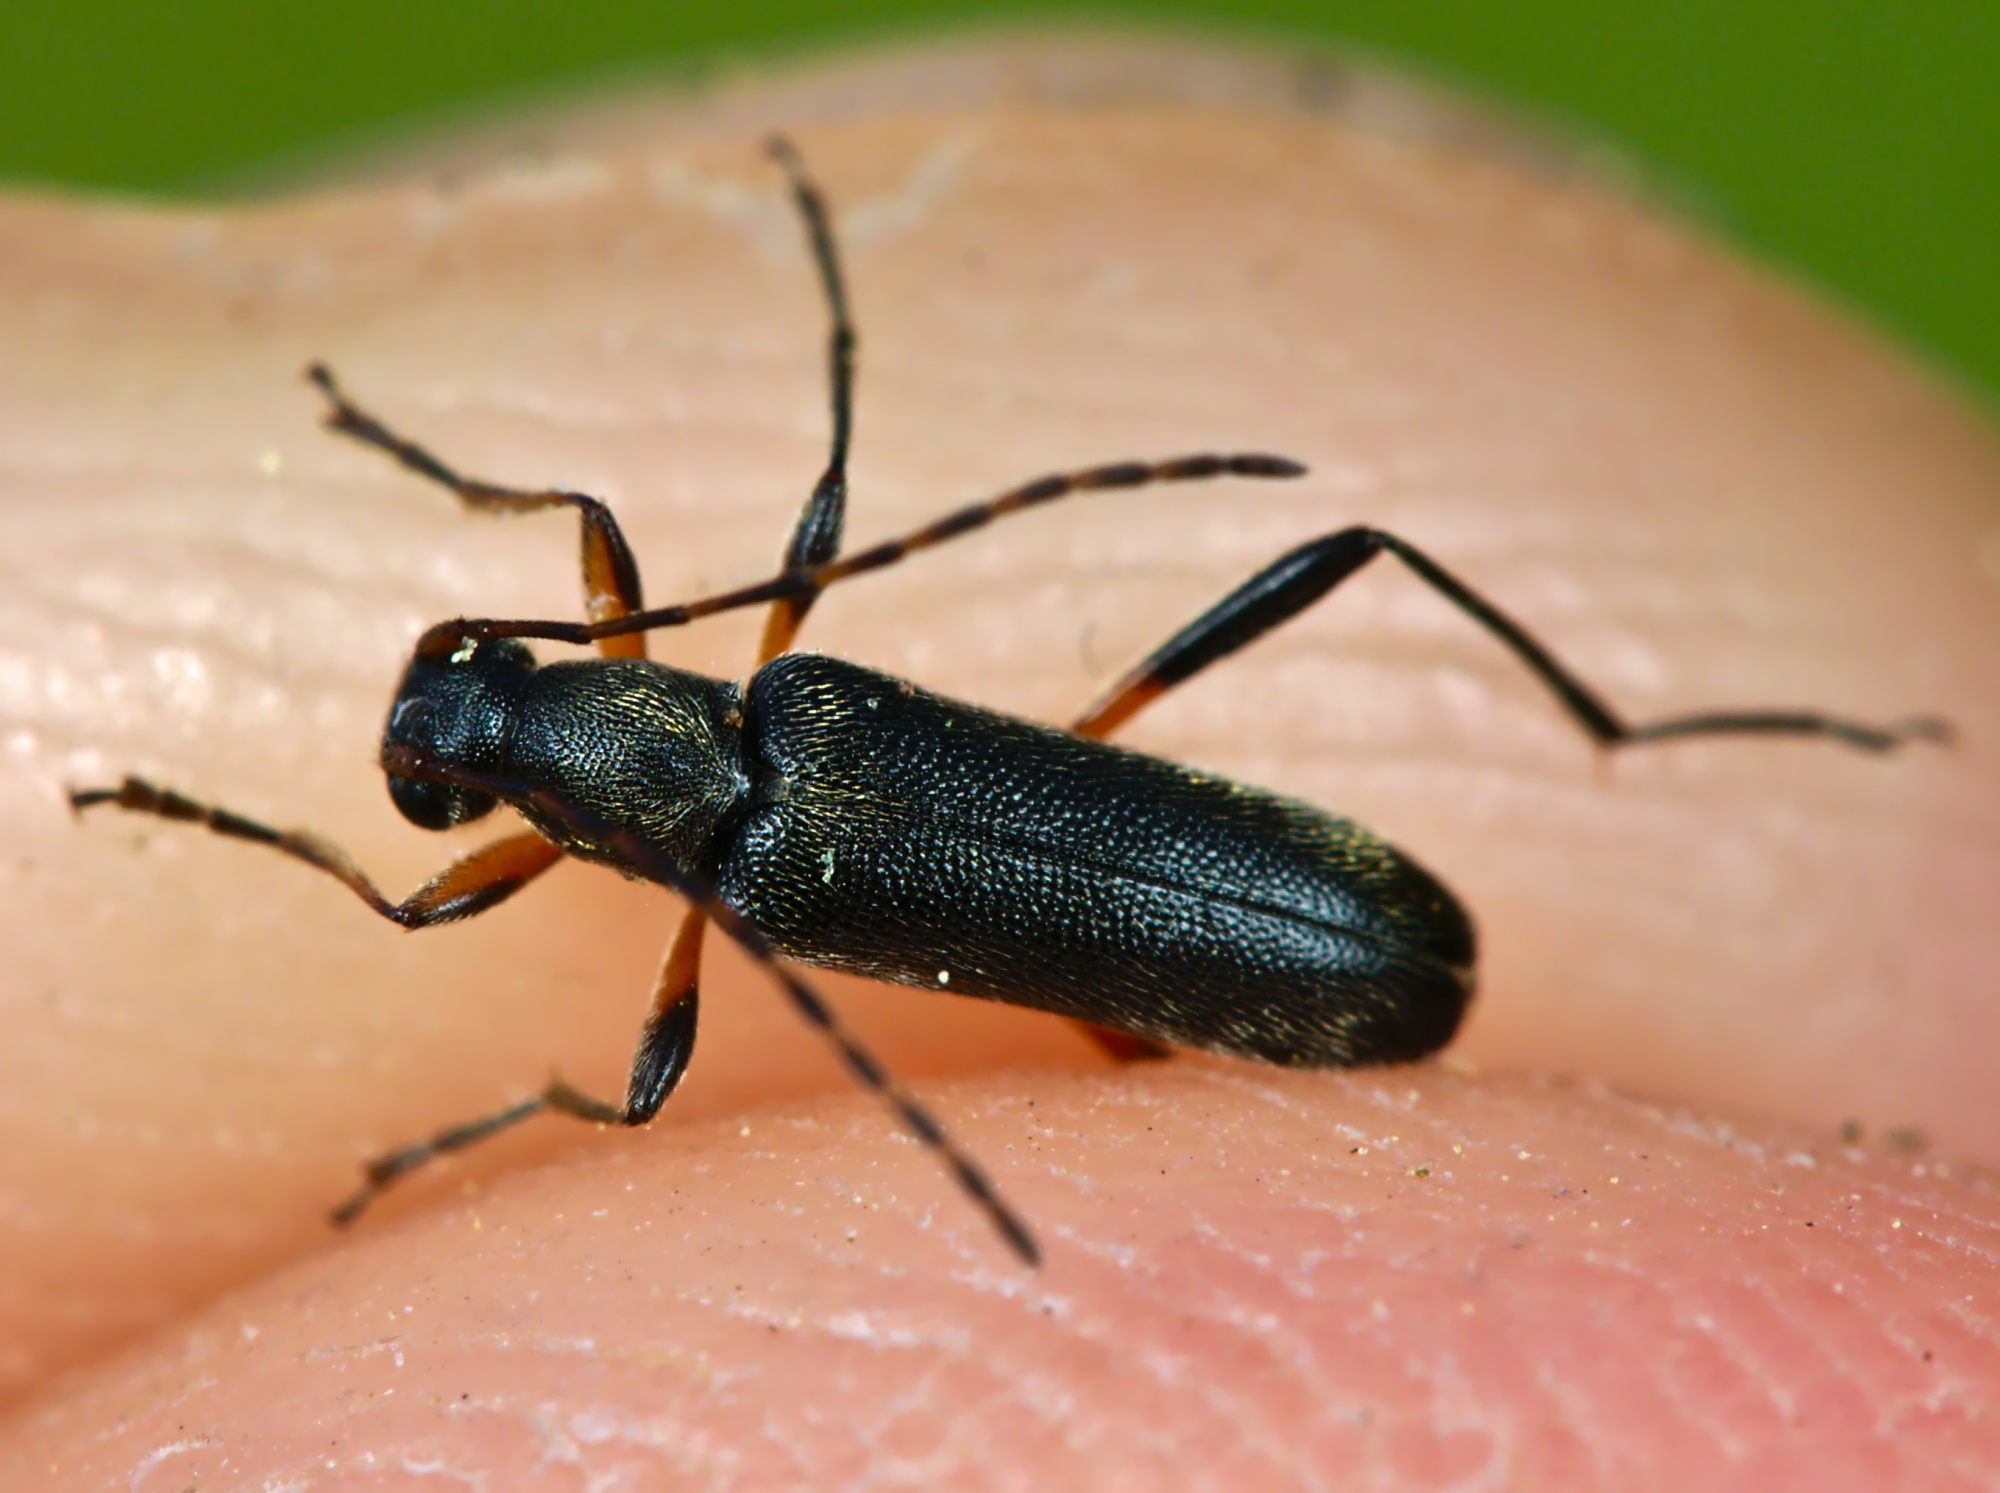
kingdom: Animalia
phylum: Arthropoda
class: Insecta
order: Coleoptera
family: Cerambycidae
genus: Grammoptera
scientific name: Grammoptera ruficornis
